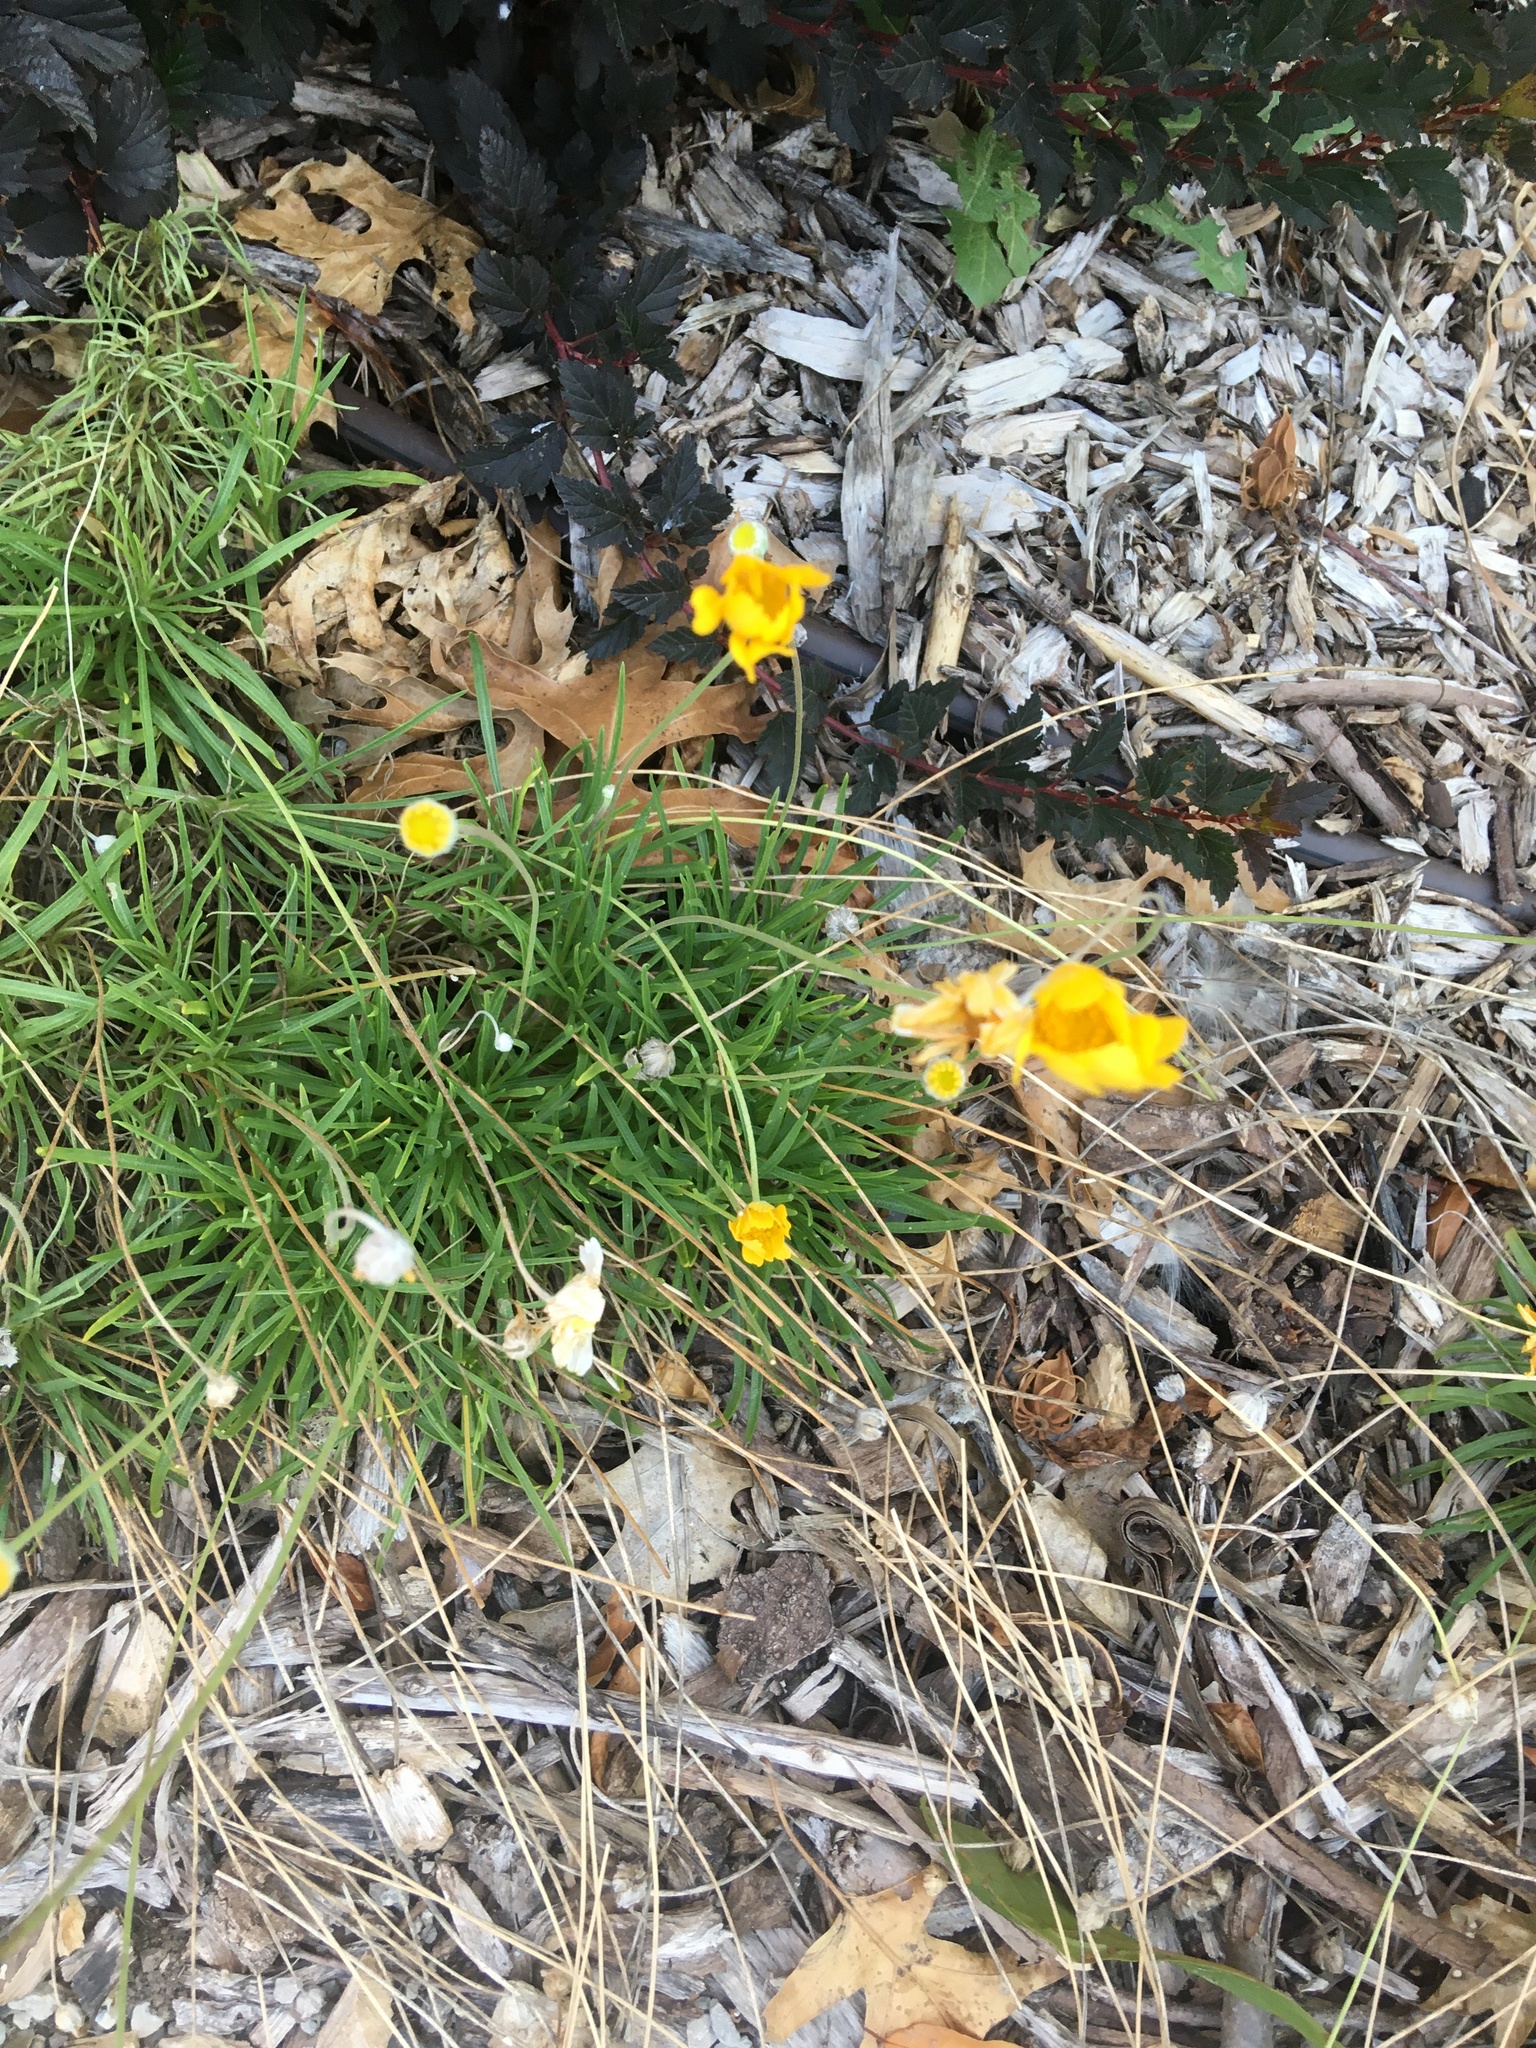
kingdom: Plantae
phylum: Tracheophyta
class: Magnoliopsida
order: Asterales
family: Asteraceae
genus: Tetraneuris
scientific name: Tetraneuris scaposa
